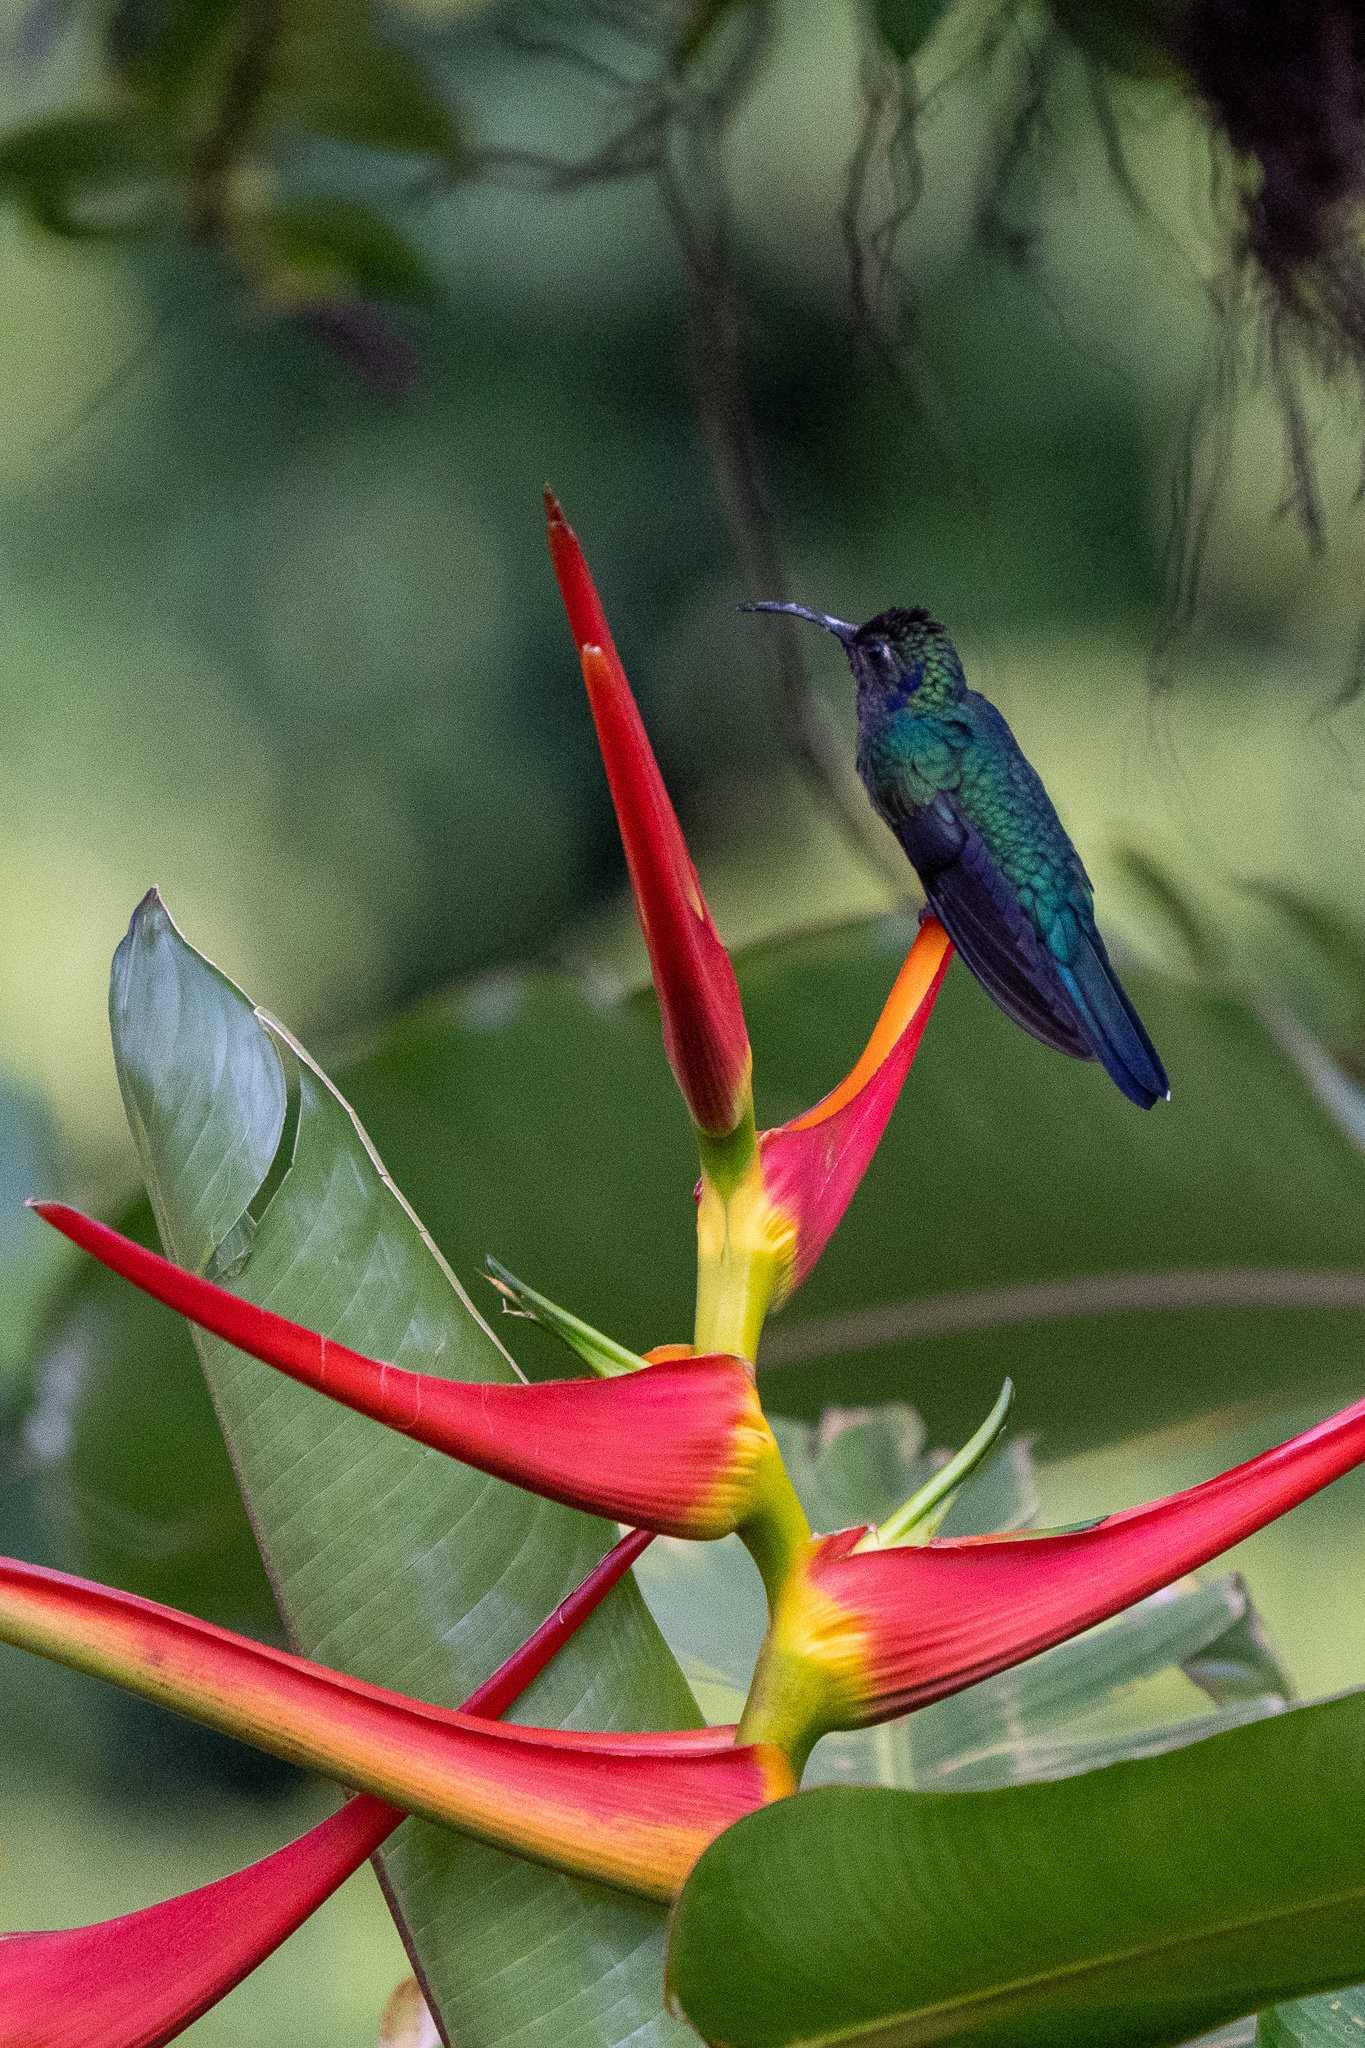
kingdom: Animalia
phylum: Chordata
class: Aves
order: Apodiformes
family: Trochilidae
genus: Campylopterus
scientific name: Campylopterus hemileucurus
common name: Violet sabrewing
